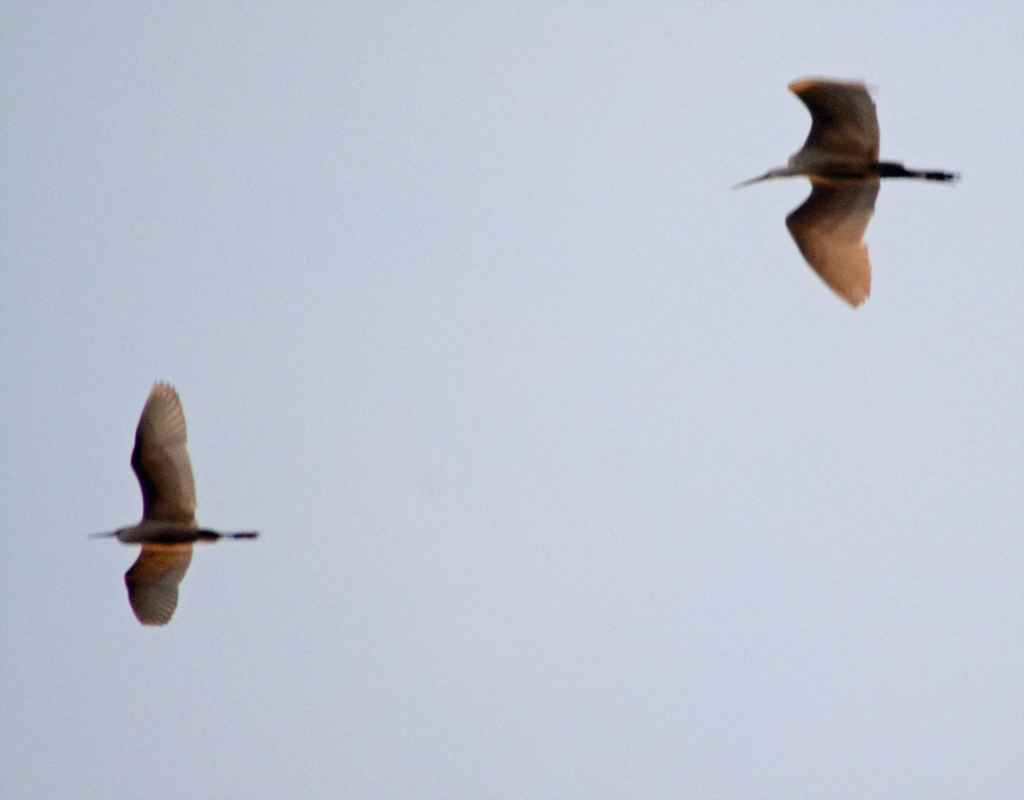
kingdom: Animalia
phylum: Chordata
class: Aves
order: Pelecaniformes
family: Ardeidae
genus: Ardea
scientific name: Ardea alba
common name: Great egret
